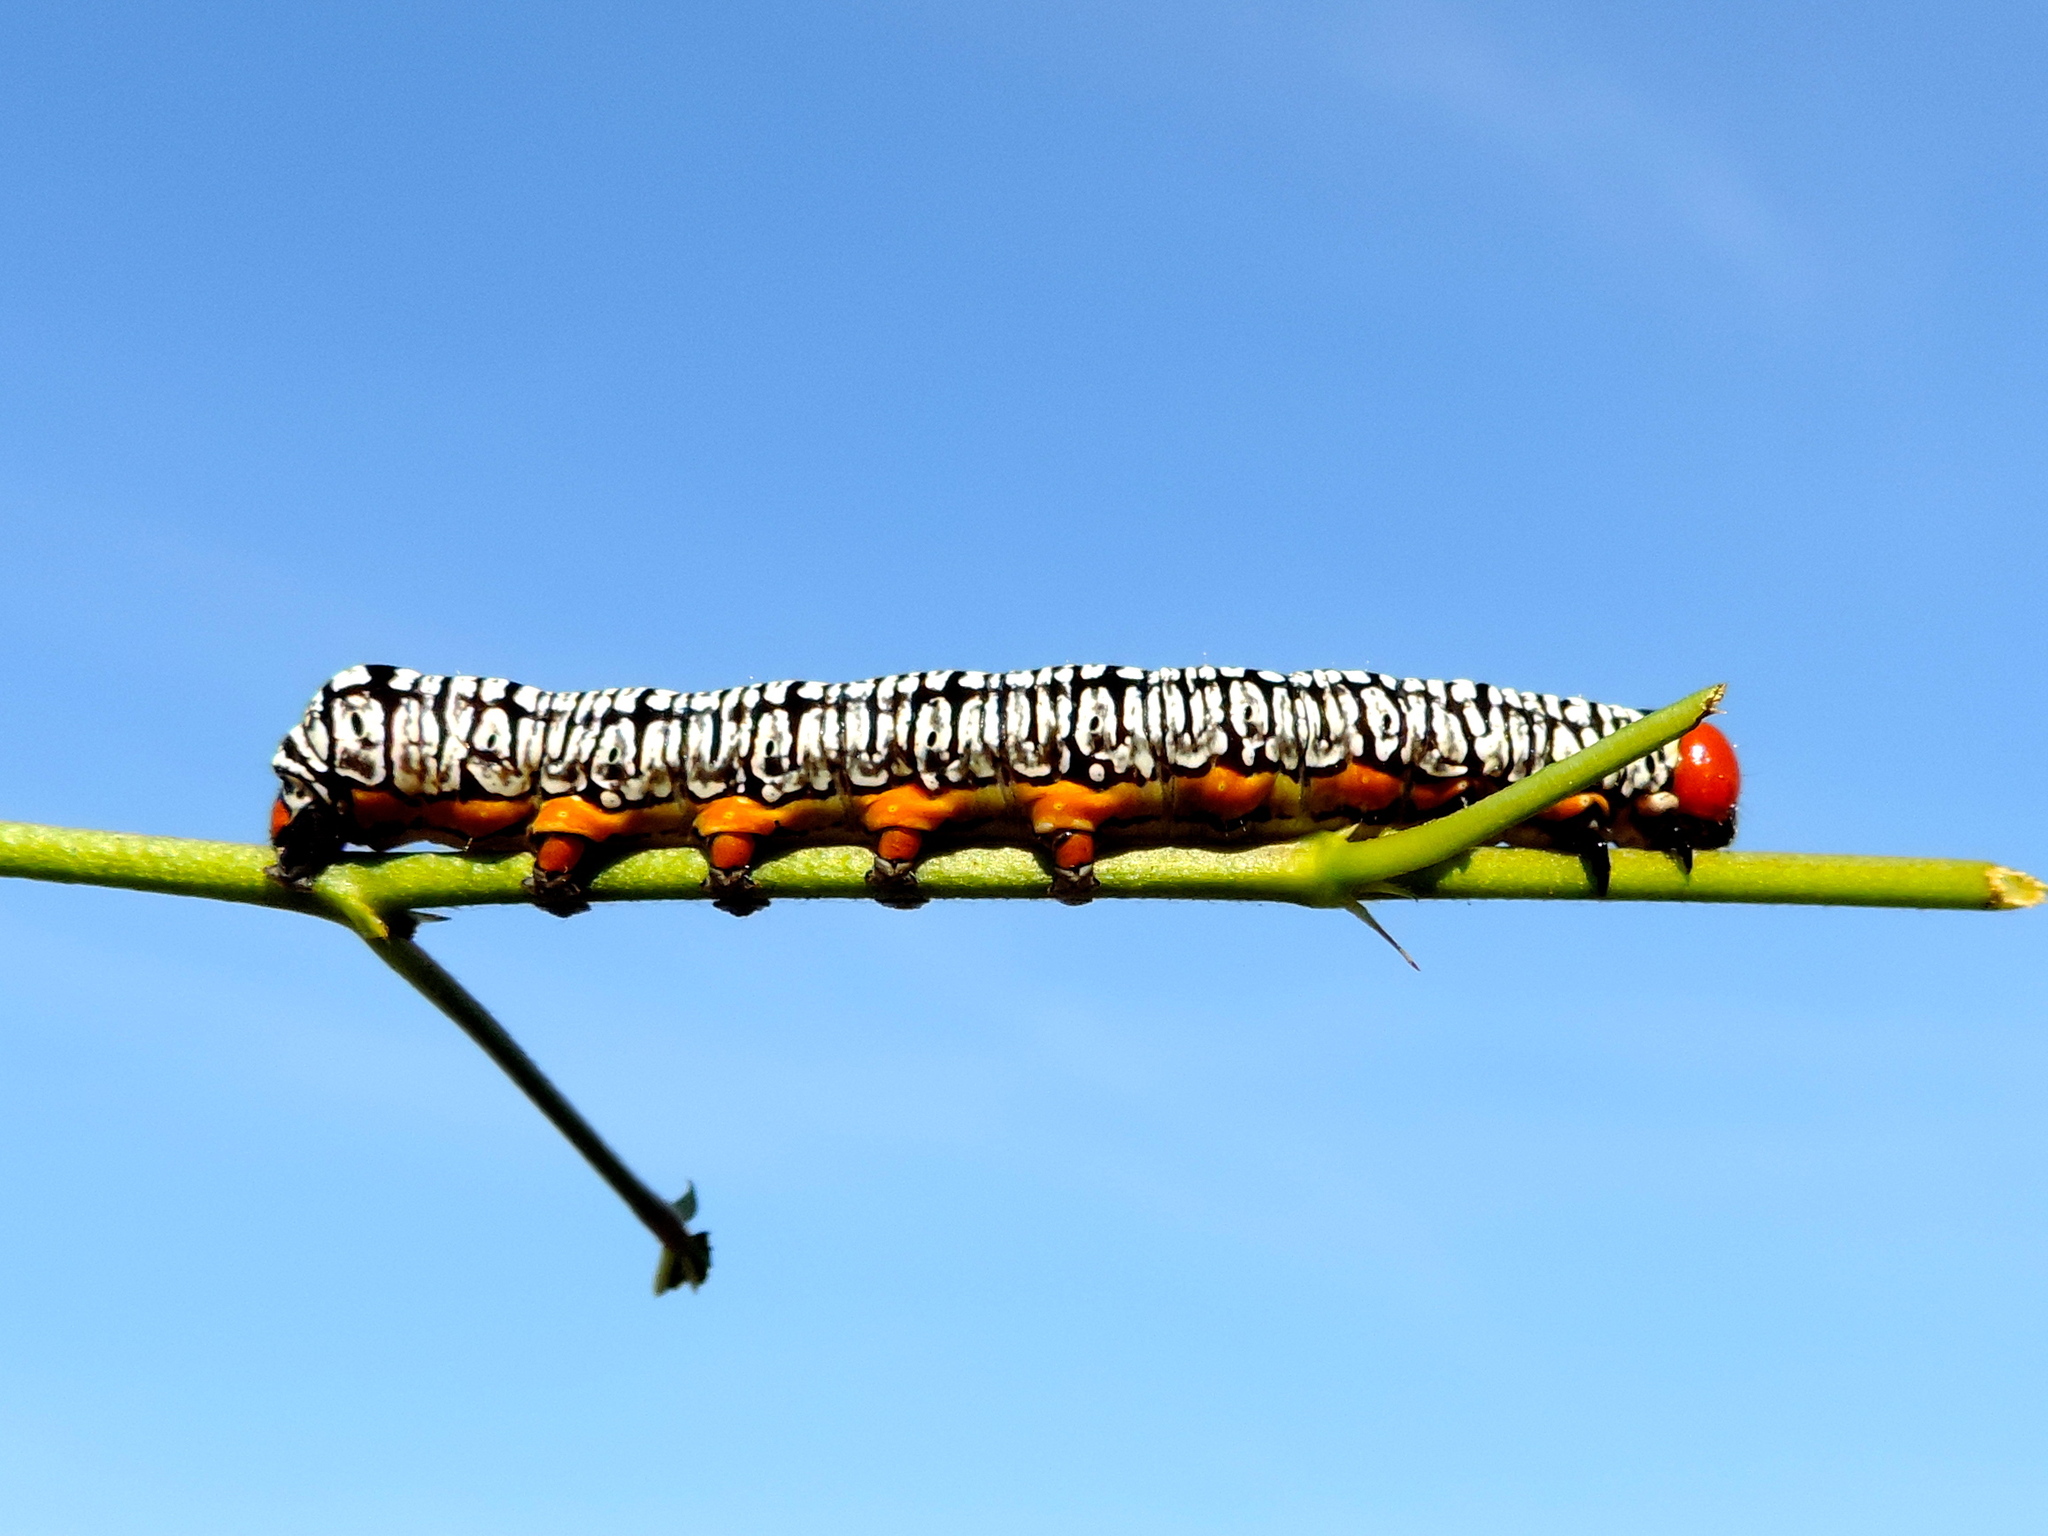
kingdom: Animalia
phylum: Arthropoda
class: Insecta
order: Lepidoptera
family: Erebidae
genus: Diphthera
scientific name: Diphthera festiva
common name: Hieroglyphic moth
